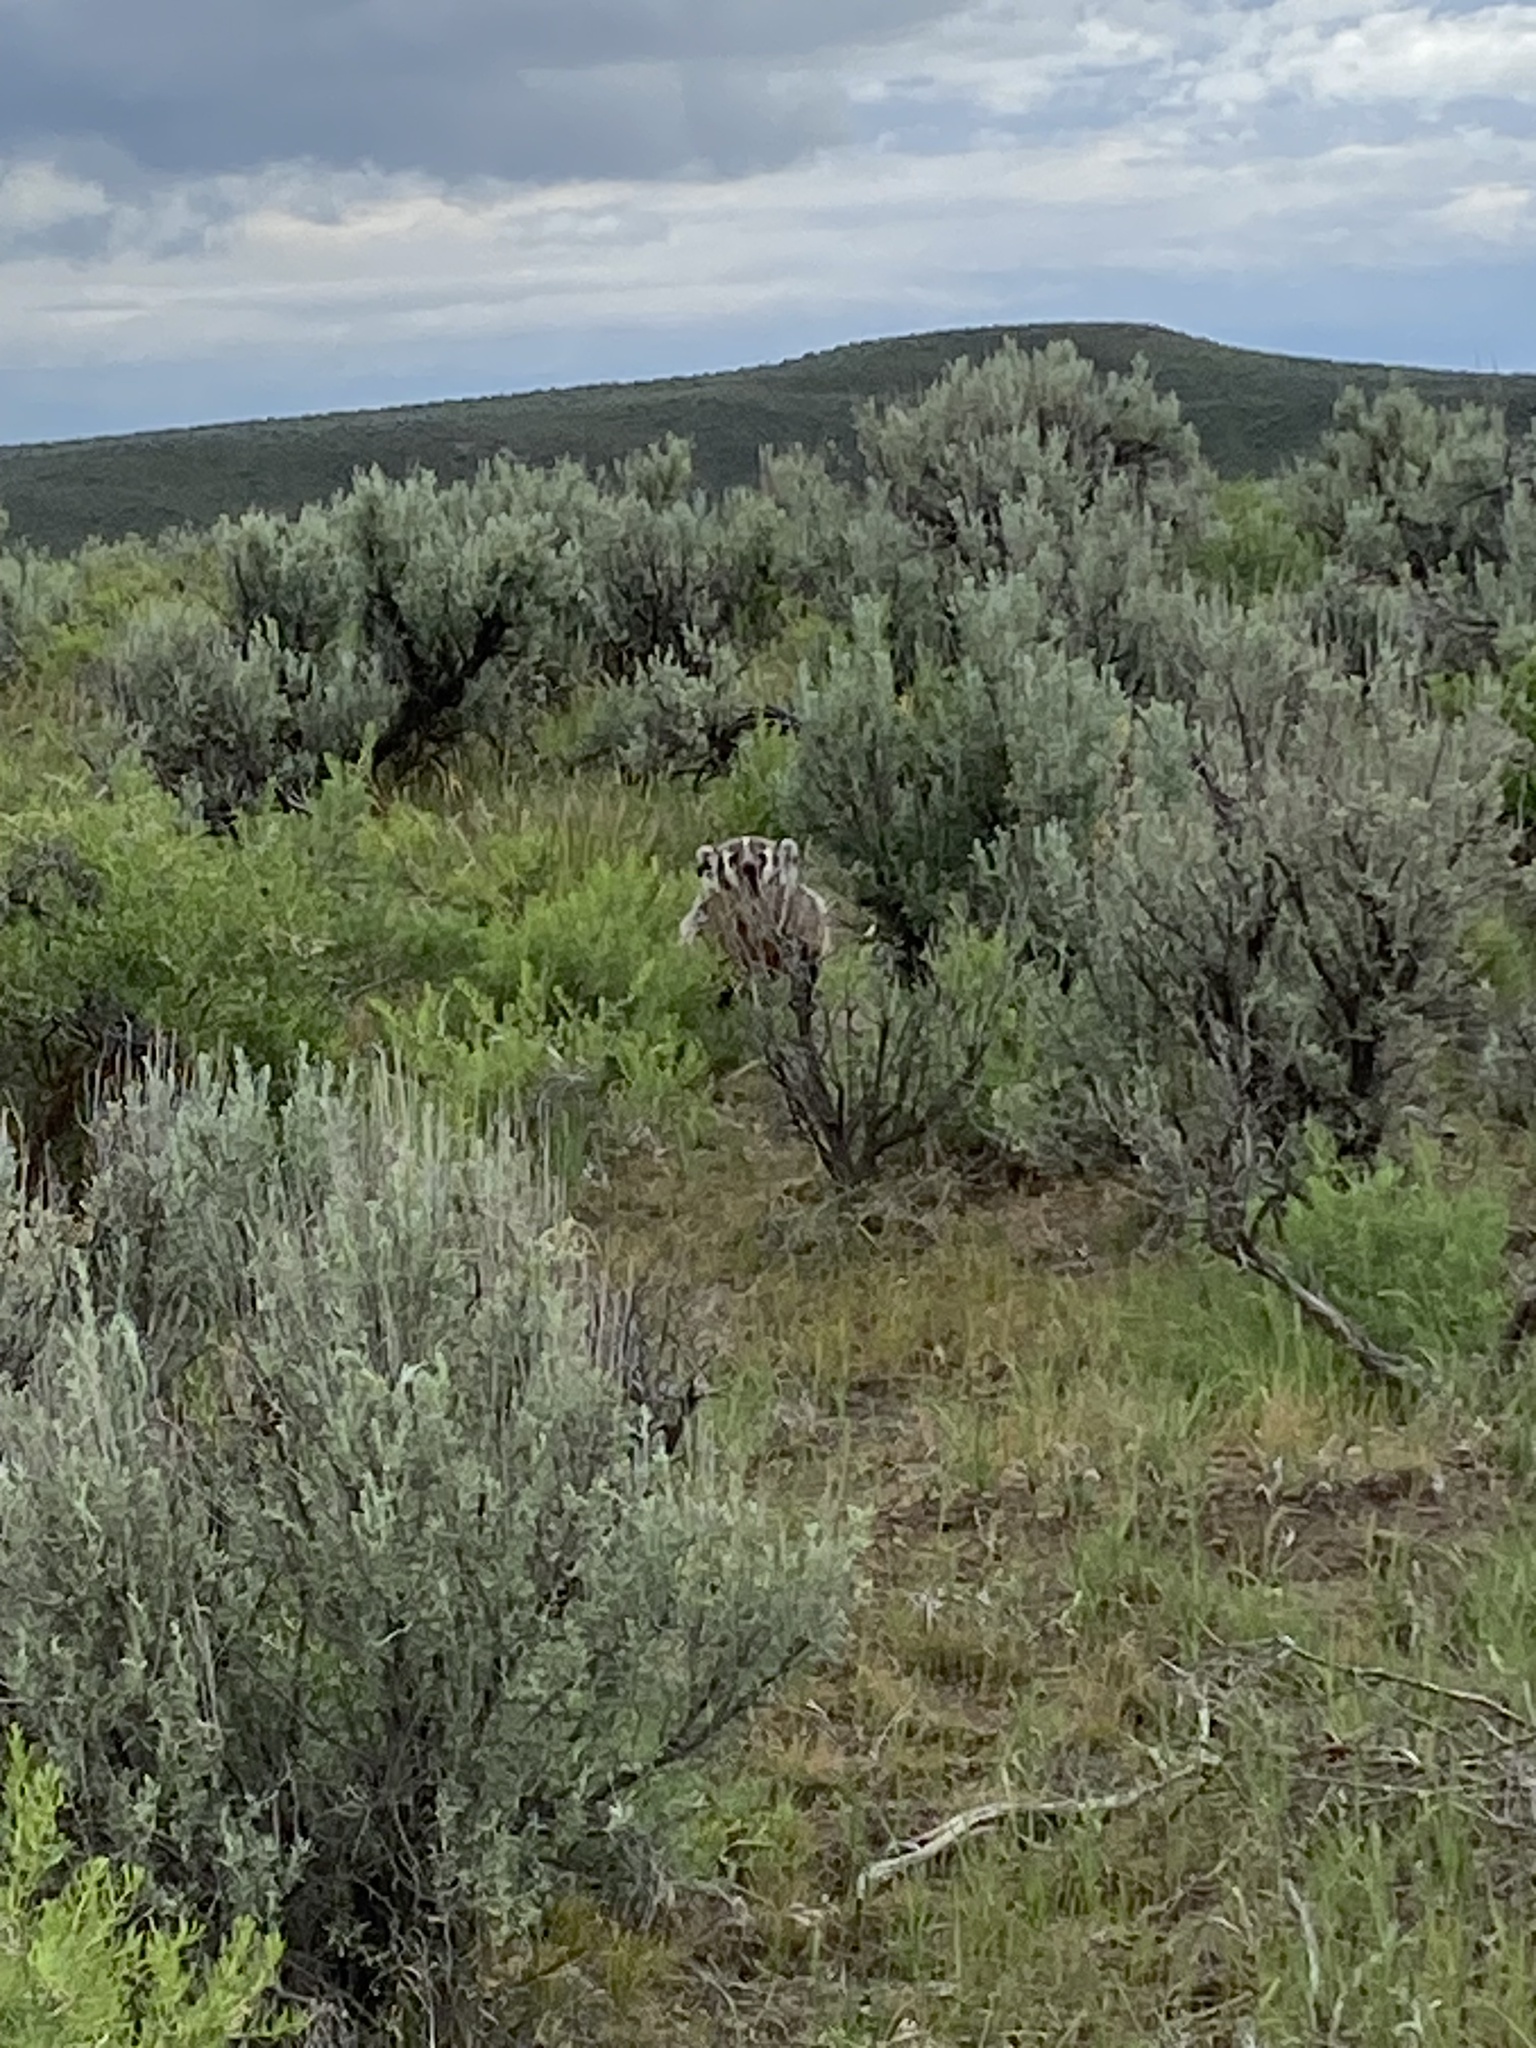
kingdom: Animalia
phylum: Chordata
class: Mammalia
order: Carnivora
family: Mustelidae
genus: Taxidea
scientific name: Taxidea taxus
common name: American badger
